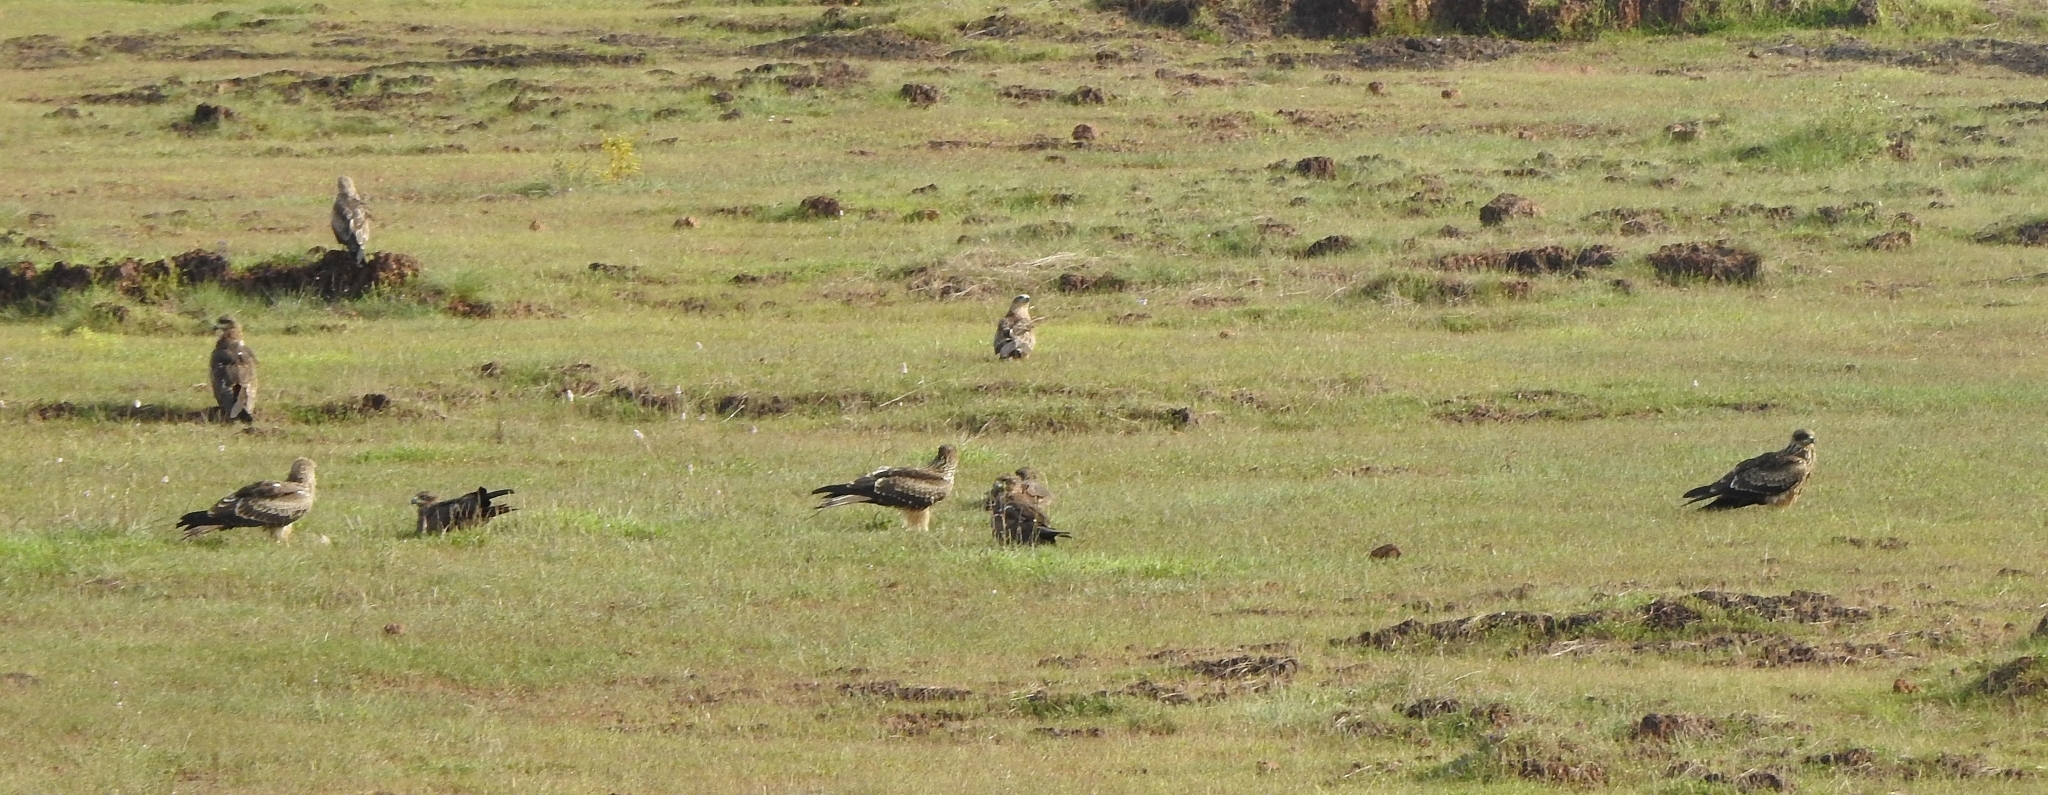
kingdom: Animalia
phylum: Chordata
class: Aves
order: Accipitriformes
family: Accipitridae
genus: Milvus
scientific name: Milvus migrans
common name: Black kite
